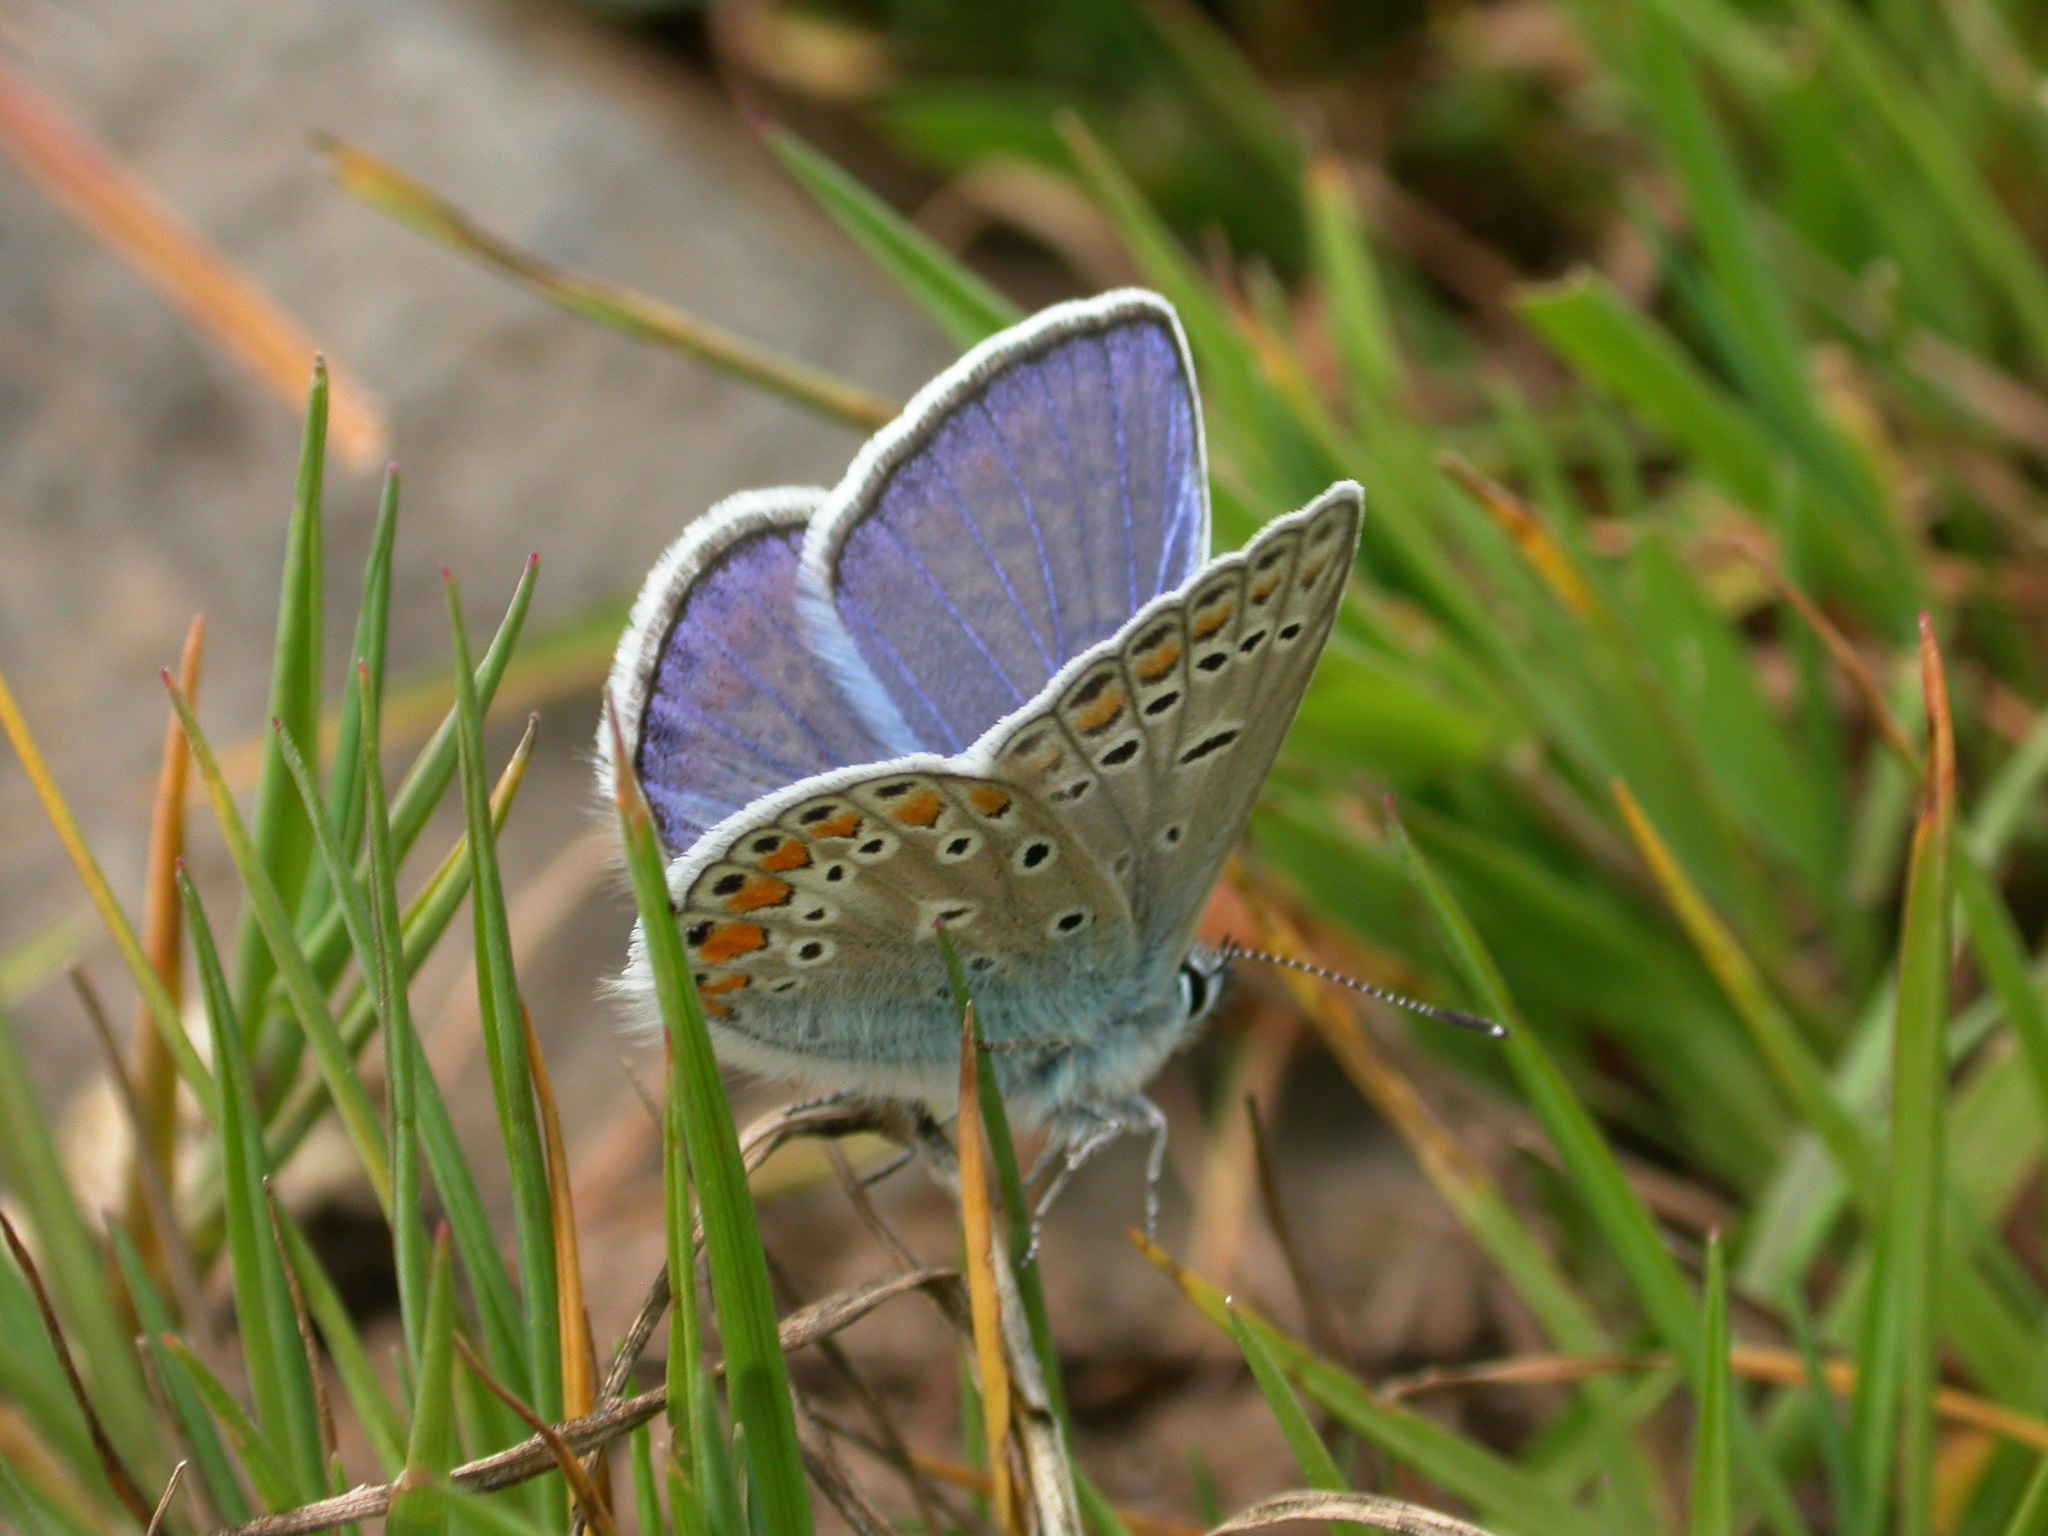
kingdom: Animalia
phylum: Arthropoda
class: Insecta
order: Lepidoptera
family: Lycaenidae
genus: Polyommatus
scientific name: Polyommatus icarus
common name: Common blue
